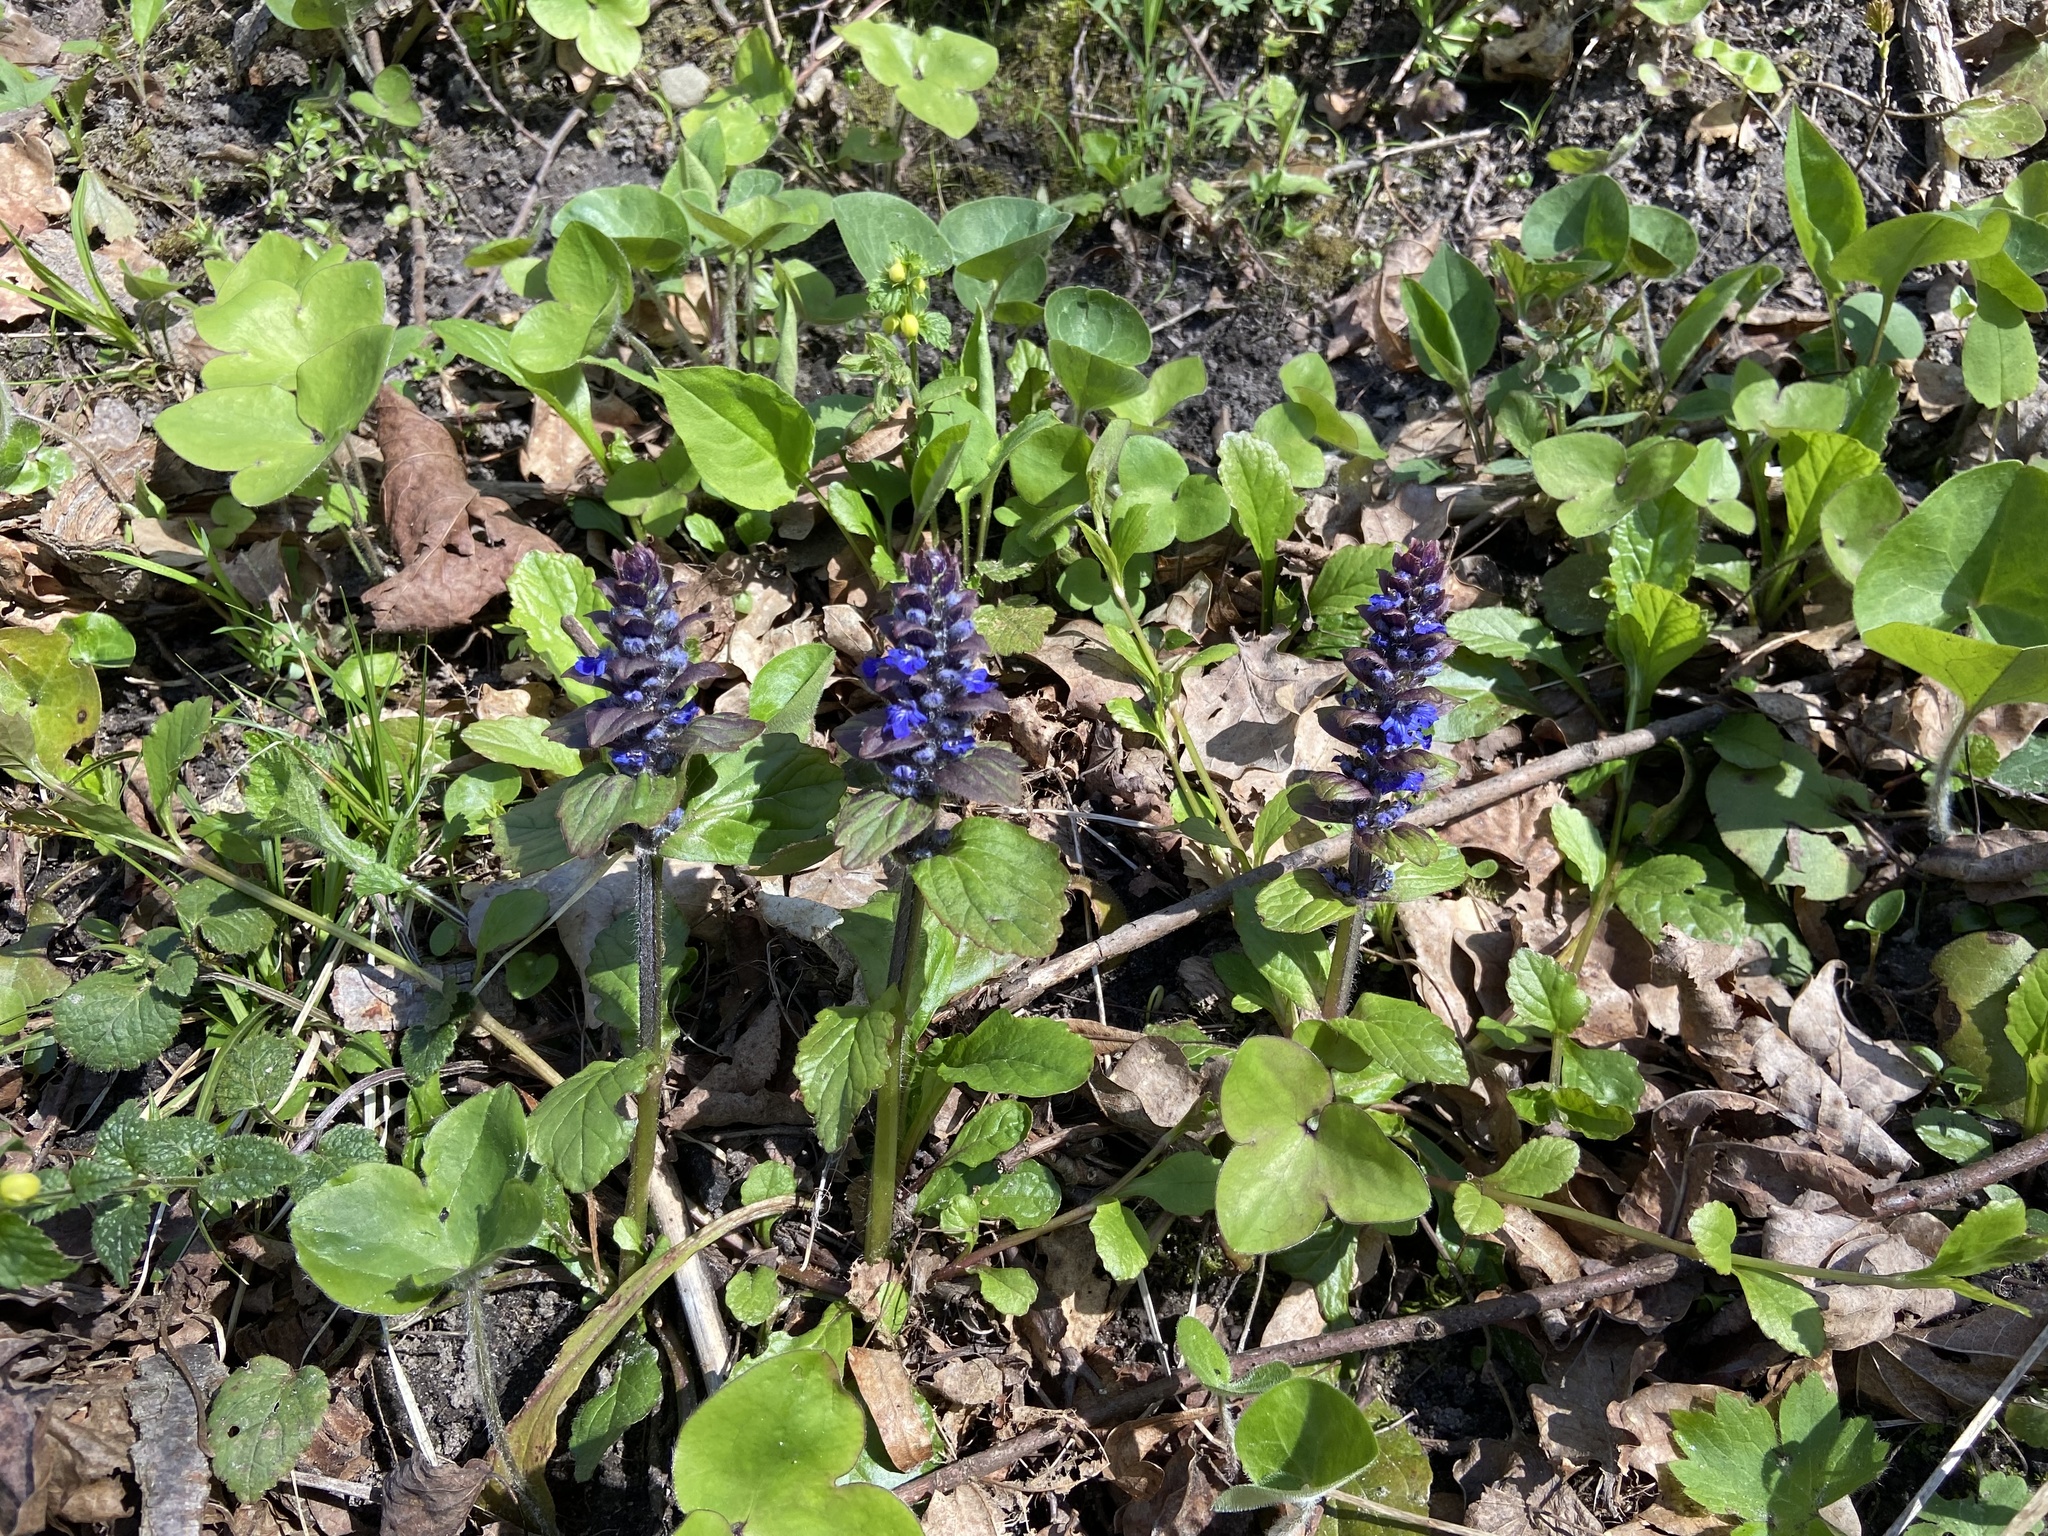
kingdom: Plantae
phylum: Tracheophyta
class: Magnoliopsida
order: Lamiales
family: Lamiaceae
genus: Ajuga
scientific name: Ajuga reptans
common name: Bugle
